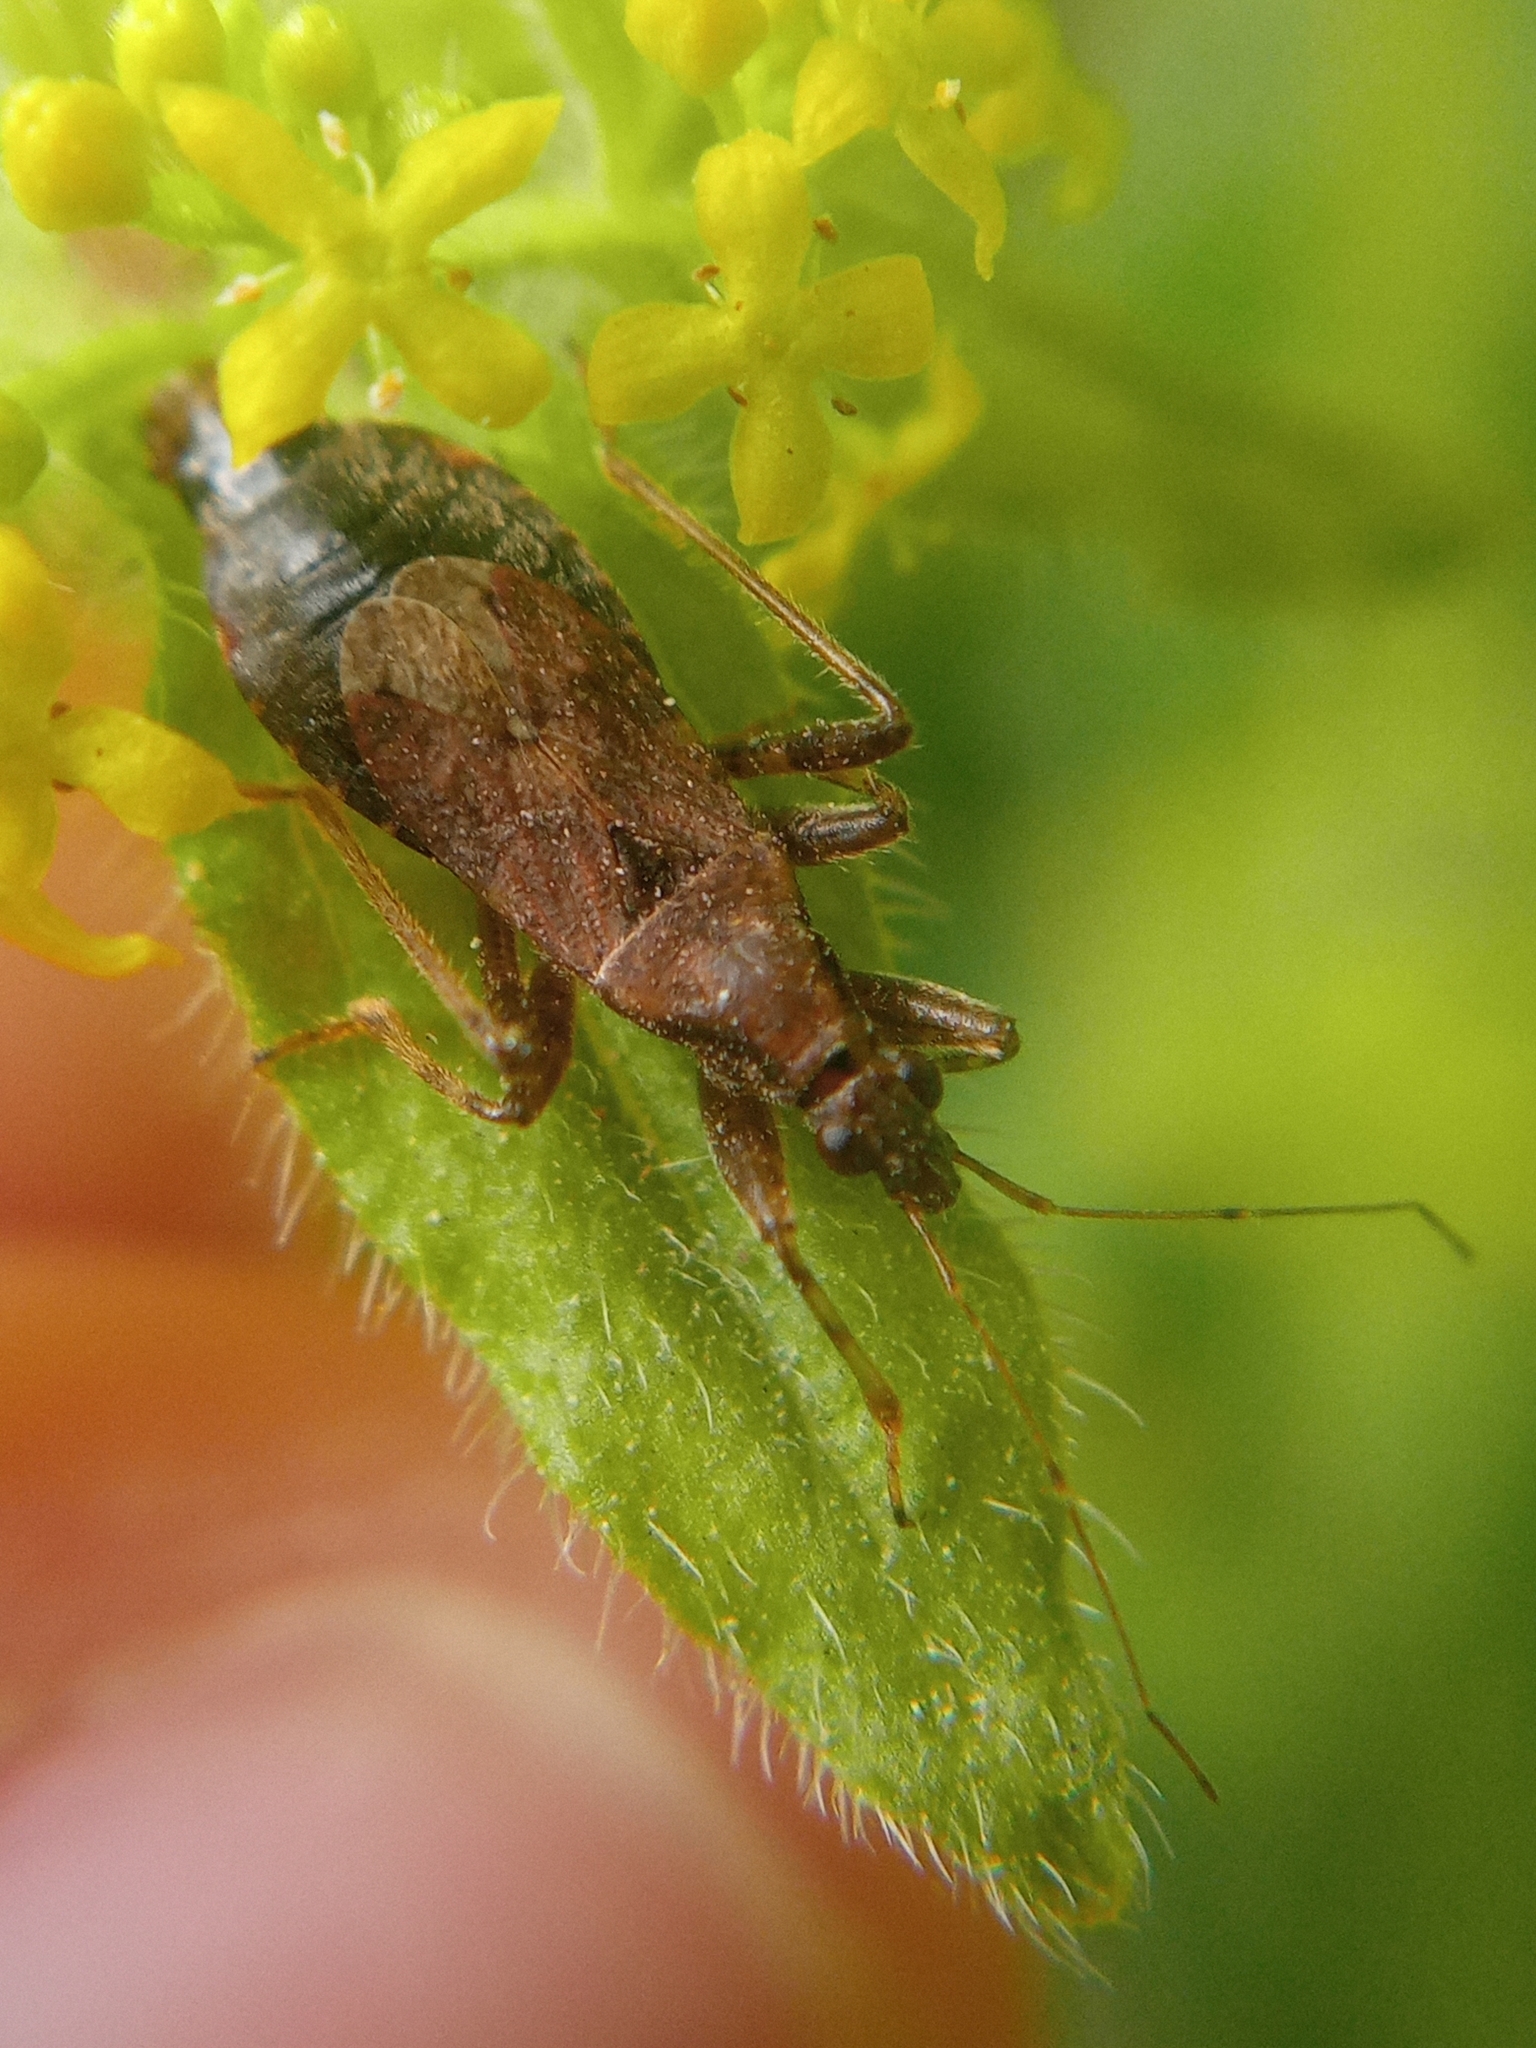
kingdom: Animalia
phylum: Arthropoda
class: Insecta
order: Hemiptera
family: Nabidae
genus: Himacerus
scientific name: Himacerus mirmicoides
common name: Ant damsel bug
